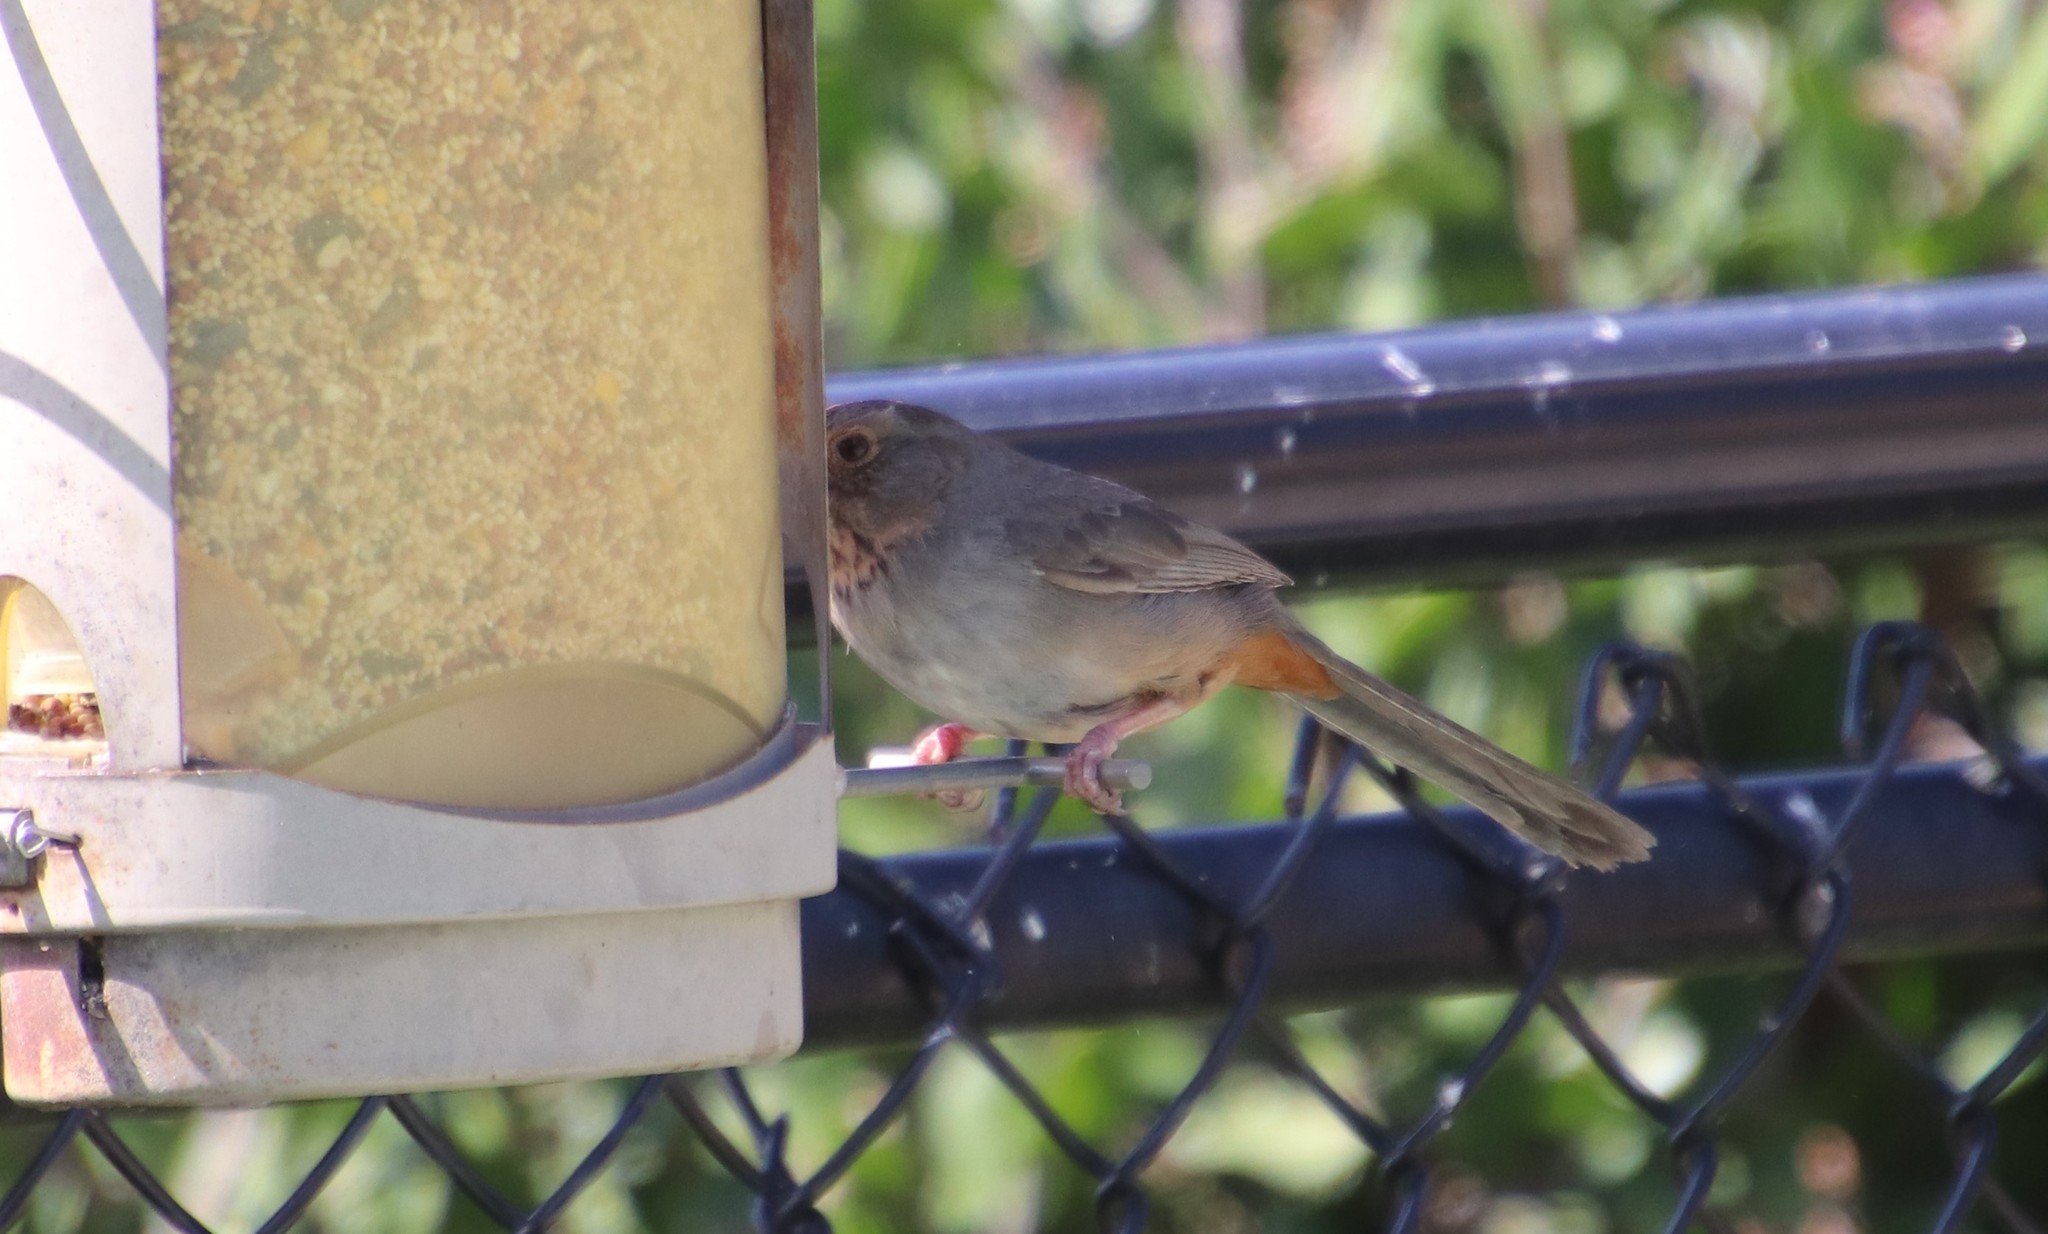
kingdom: Animalia
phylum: Chordata
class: Aves
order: Passeriformes
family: Passerellidae
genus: Melozone
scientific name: Melozone crissalis
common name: California towhee
